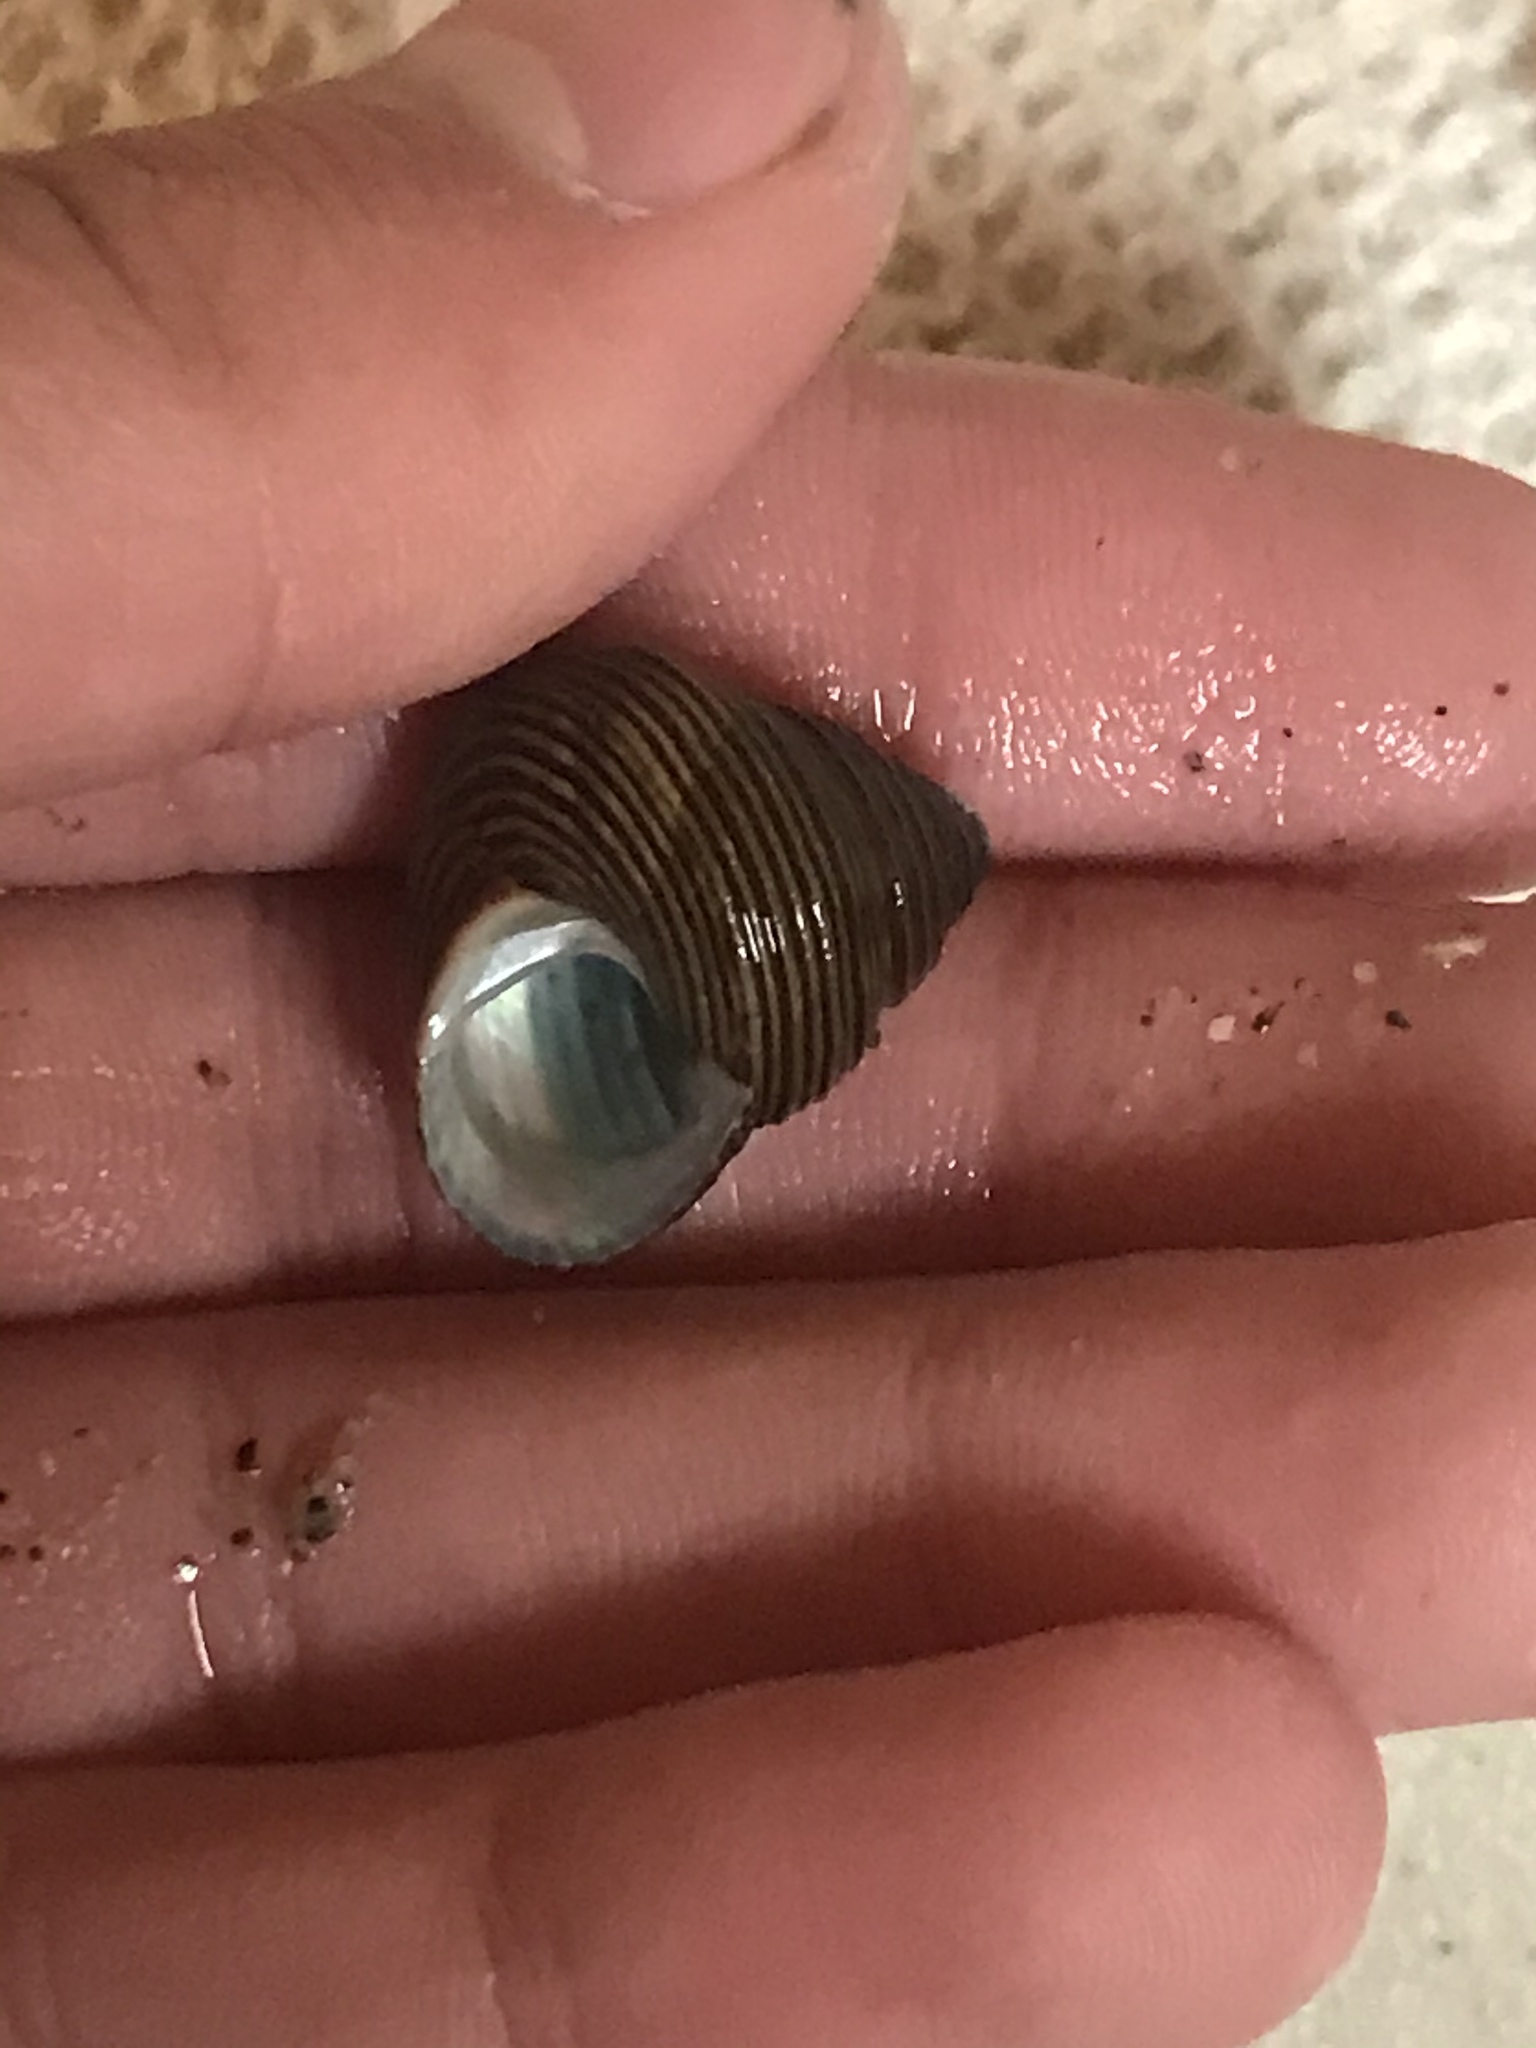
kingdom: Animalia
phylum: Mollusca
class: Gastropoda
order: Trochida
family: Calliostomatidae
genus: Calliostoma
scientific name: Calliostoma ligatum
